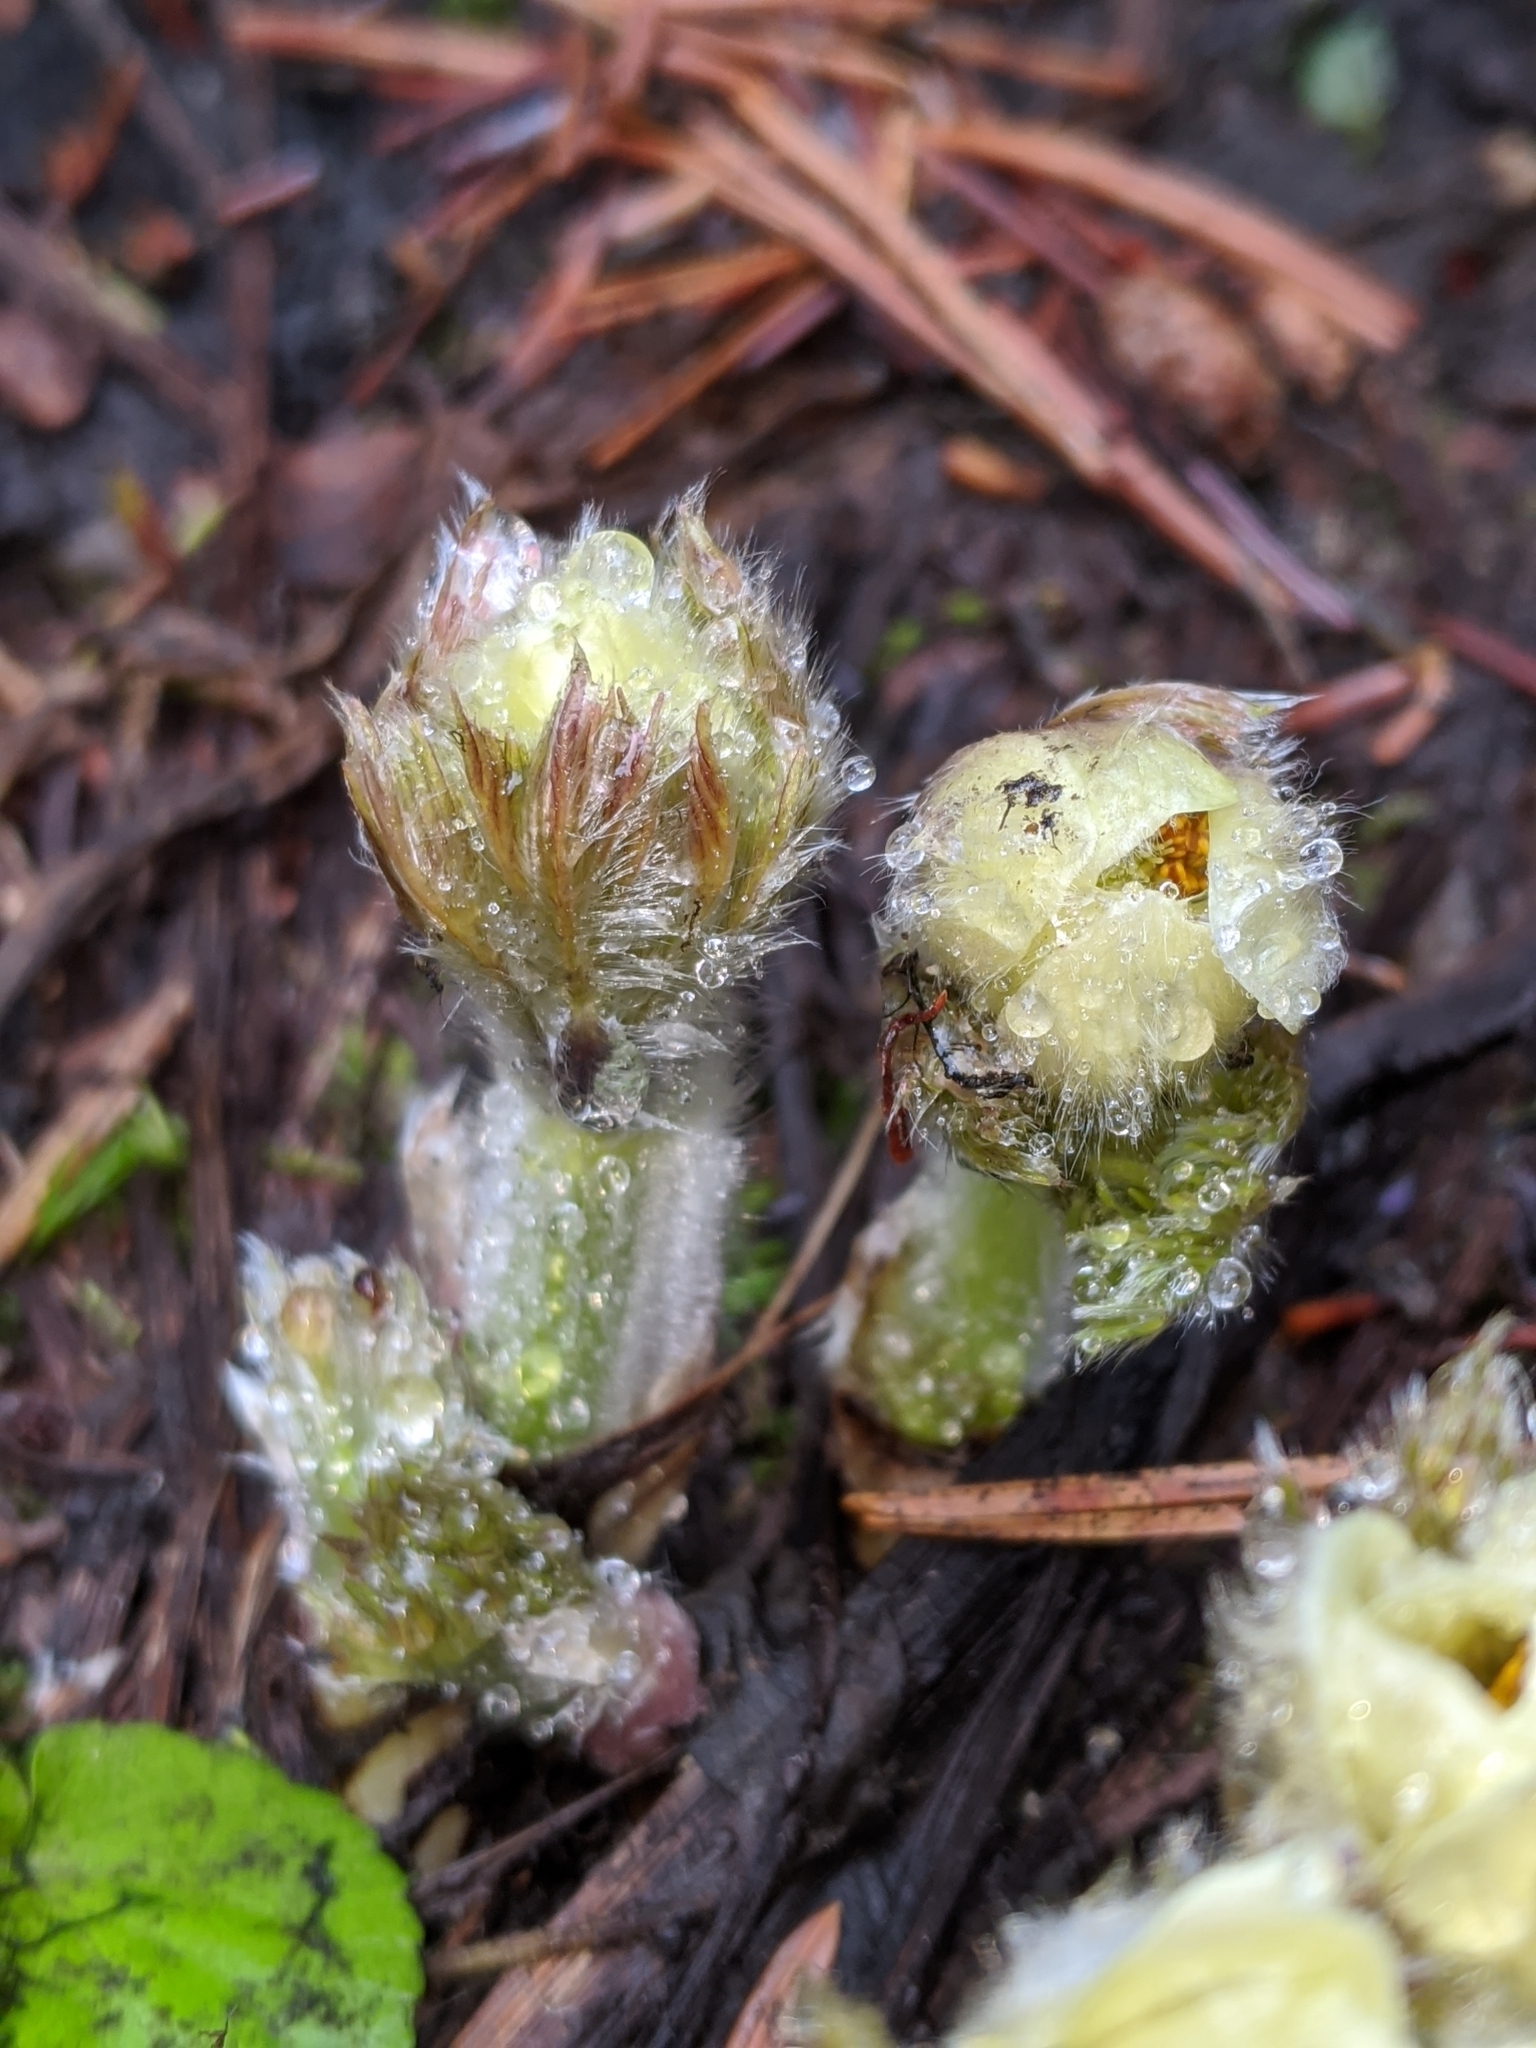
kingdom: Plantae
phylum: Tracheophyta
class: Magnoliopsida
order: Ranunculales
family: Ranunculaceae
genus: Pulsatilla
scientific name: Pulsatilla occidentalis
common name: Mountain pasqueflower
